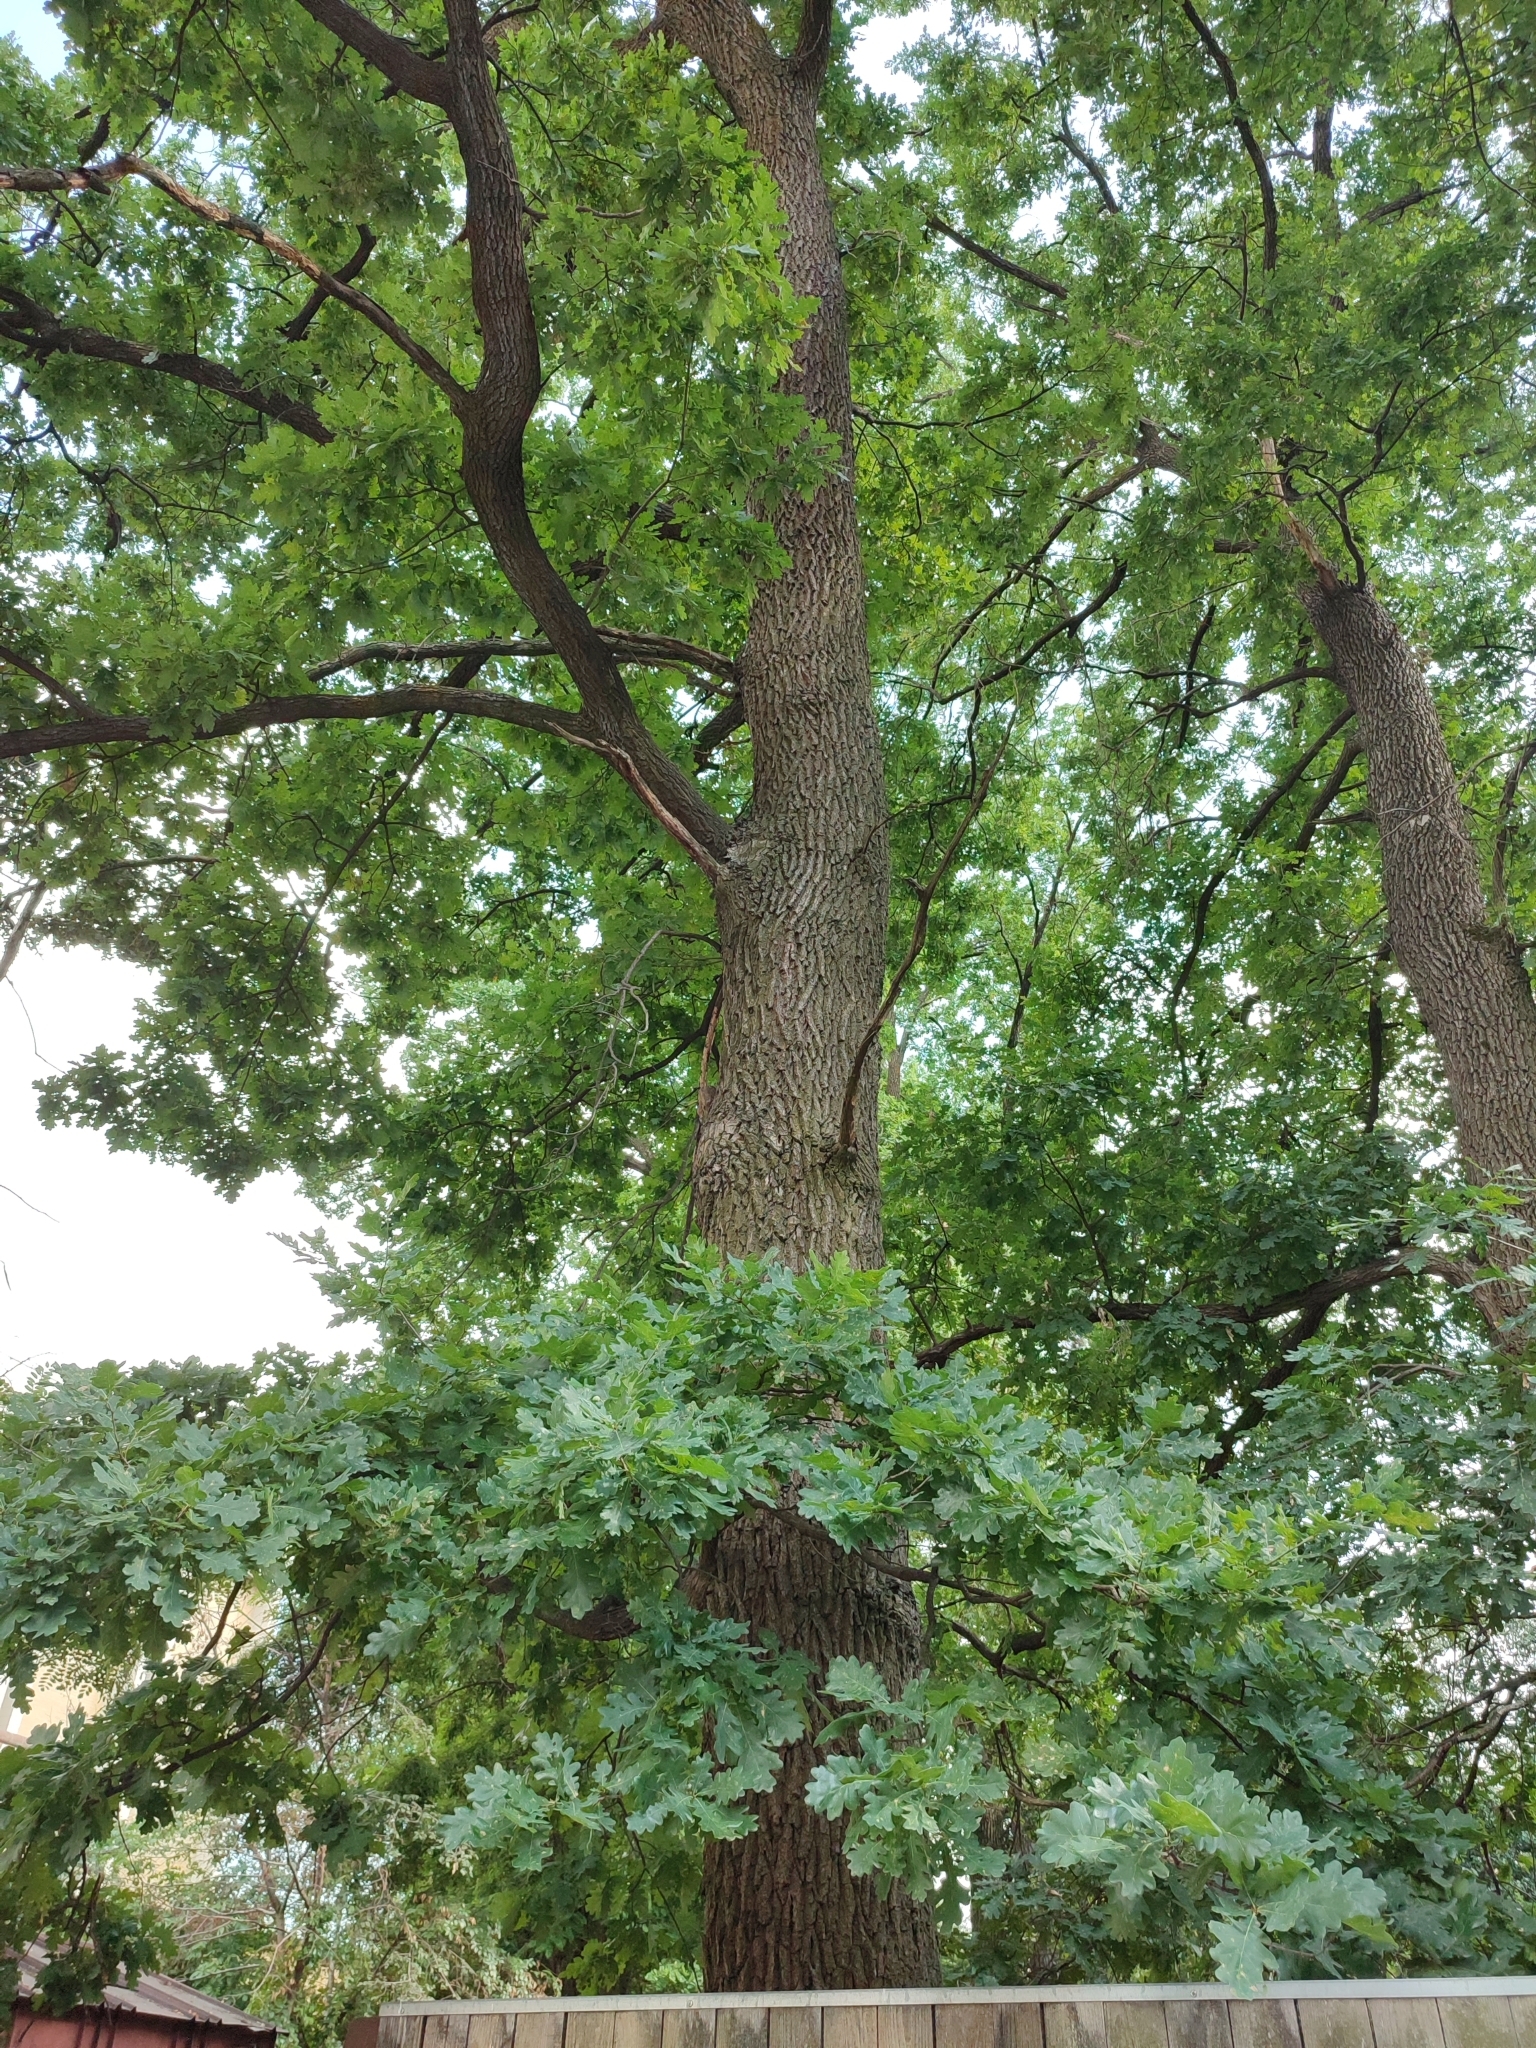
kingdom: Plantae
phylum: Tracheophyta
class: Magnoliopsida
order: Fagales
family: Fagaceae
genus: Quercus
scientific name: Quercus robur
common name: Pedunculate oak
